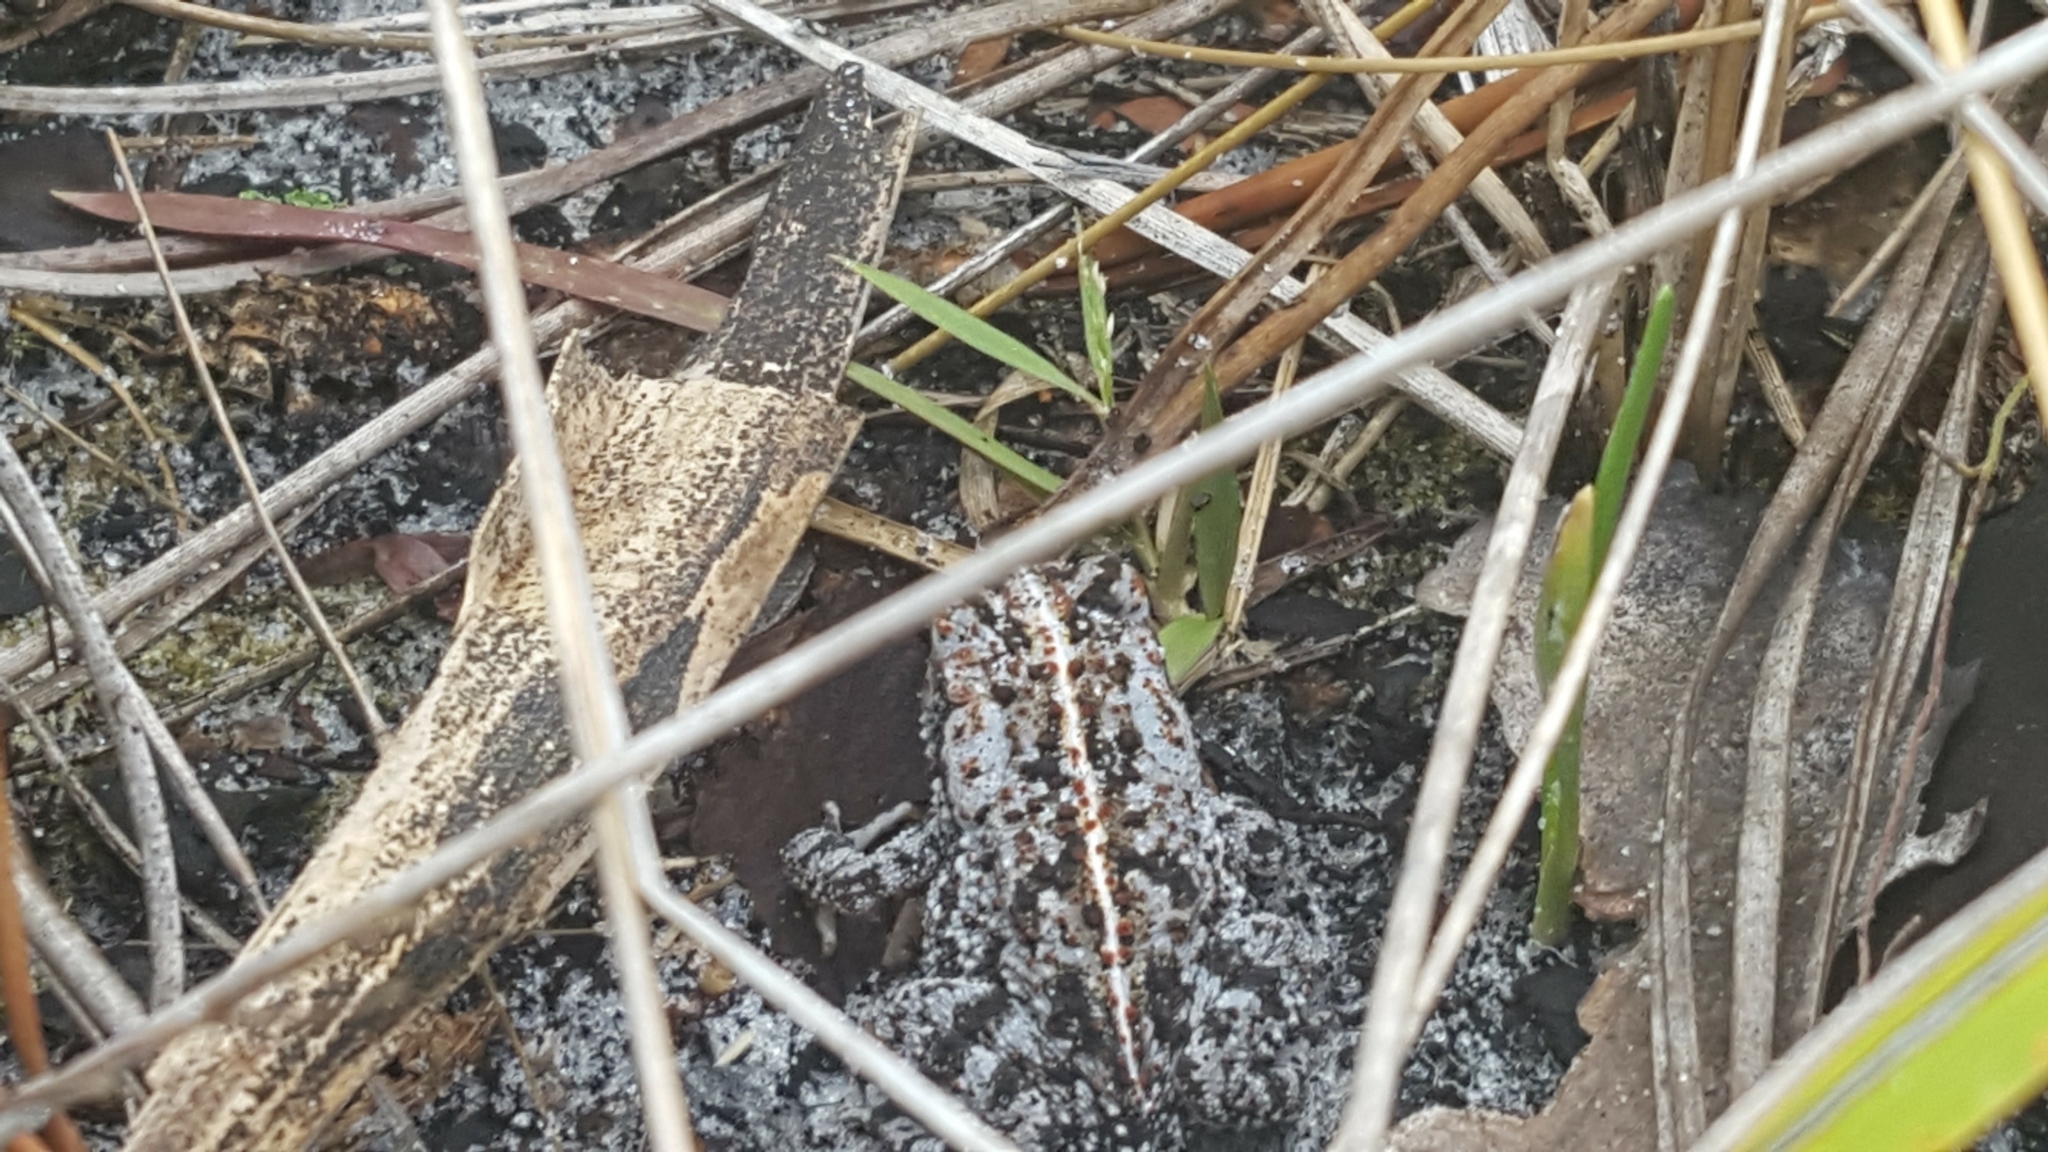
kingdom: Animalia
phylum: Chordata
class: Amphibia
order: Anura
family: Bufonidae
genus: Anaxyrus
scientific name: Anaxyrus quercicus
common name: Oak toad
